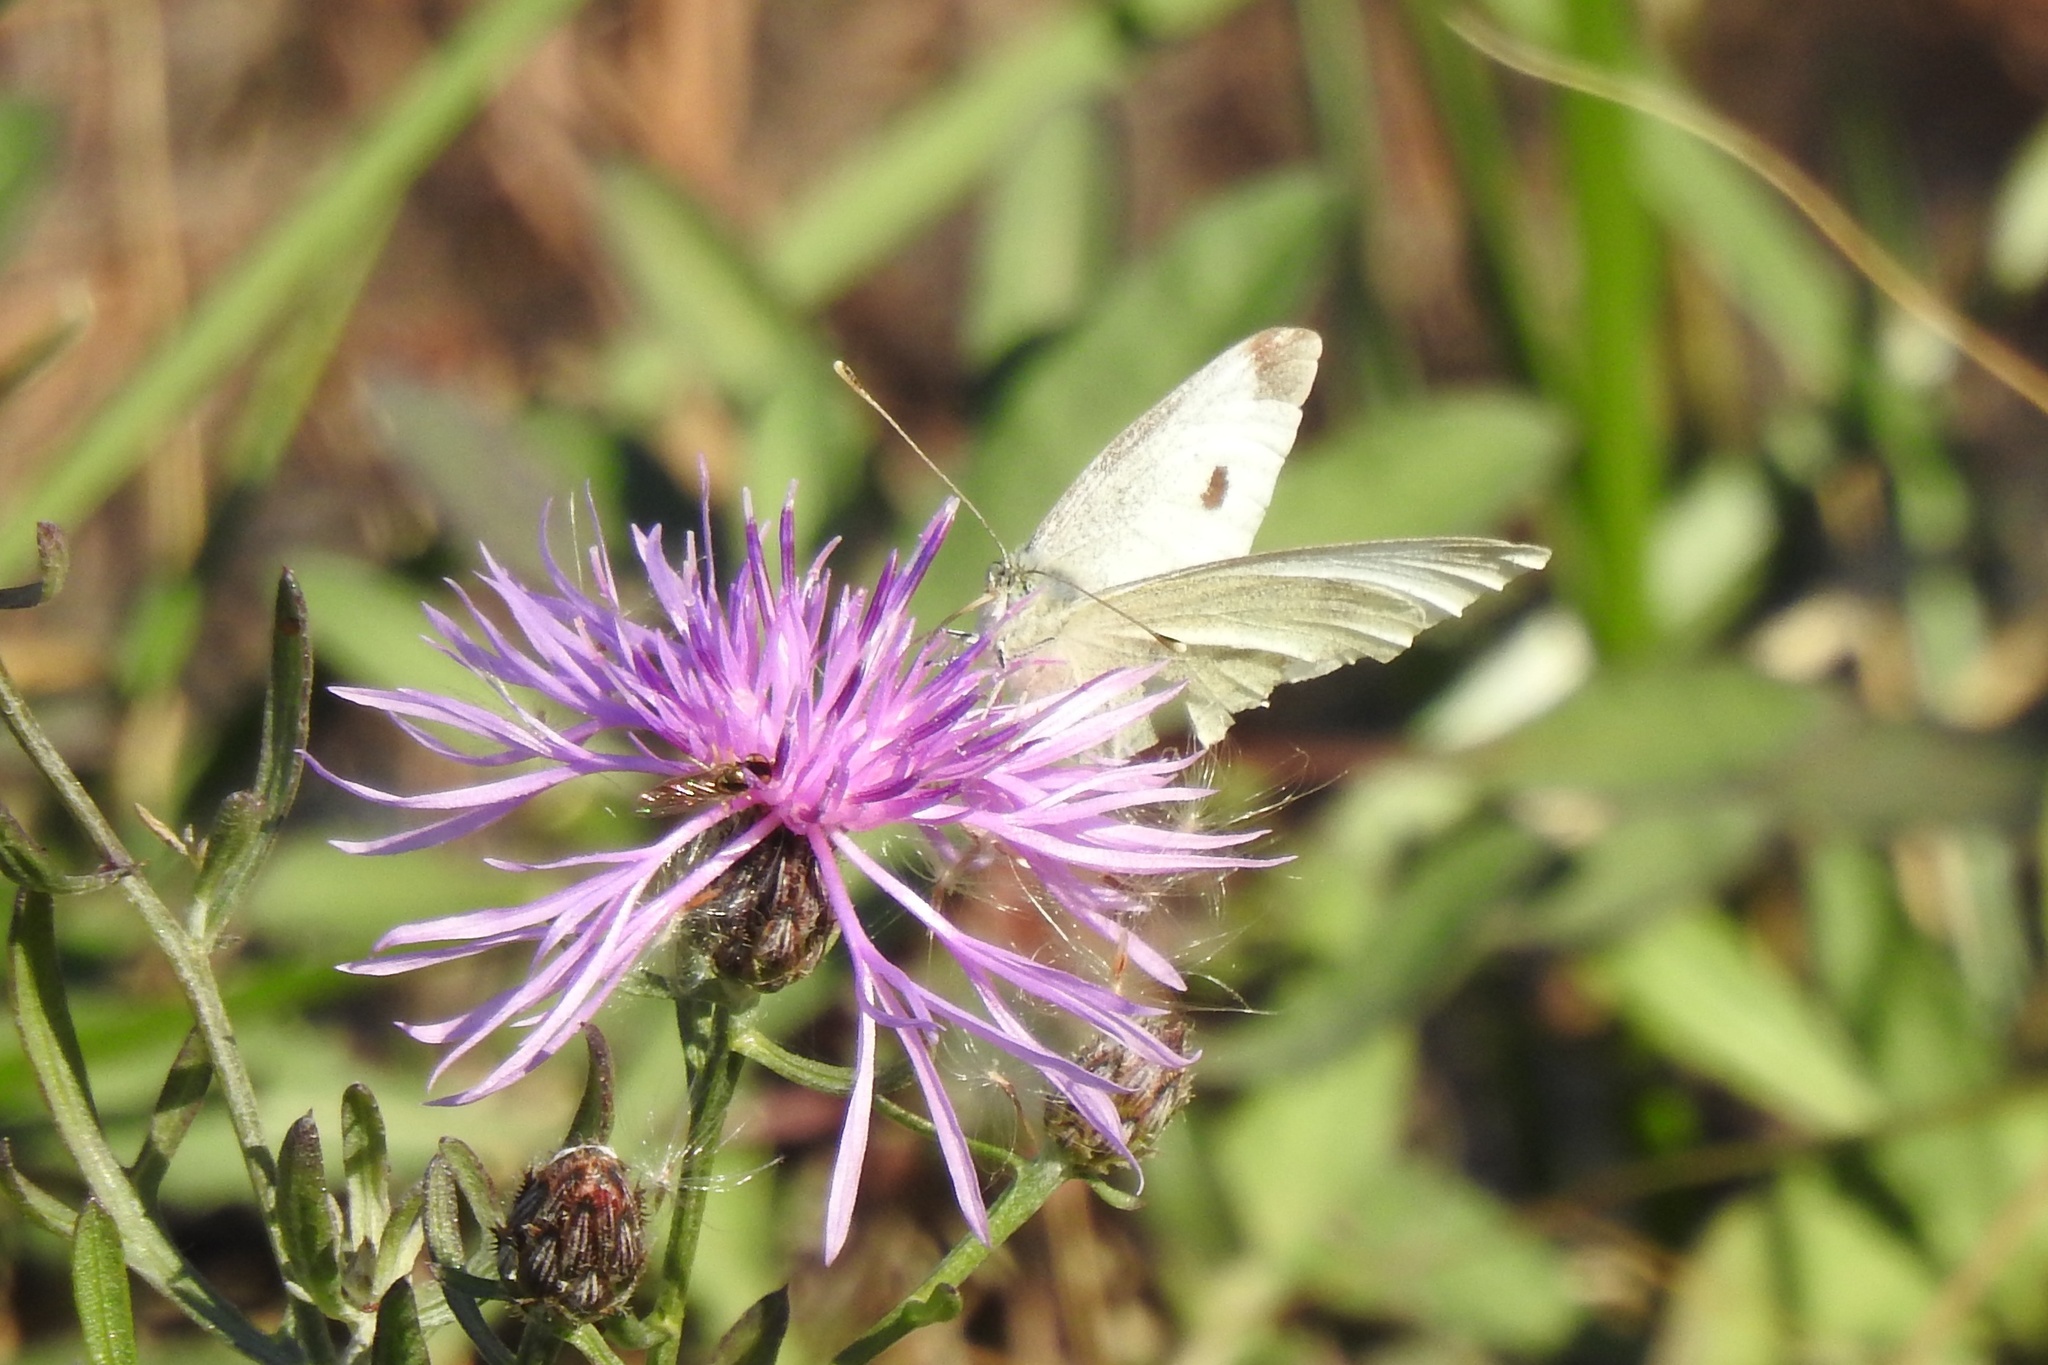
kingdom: Animalia
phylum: Arthropoda
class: Insecta
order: Lepidoptera
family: Pieridae
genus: Pieris
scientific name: Pieris rapae
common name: Small white
